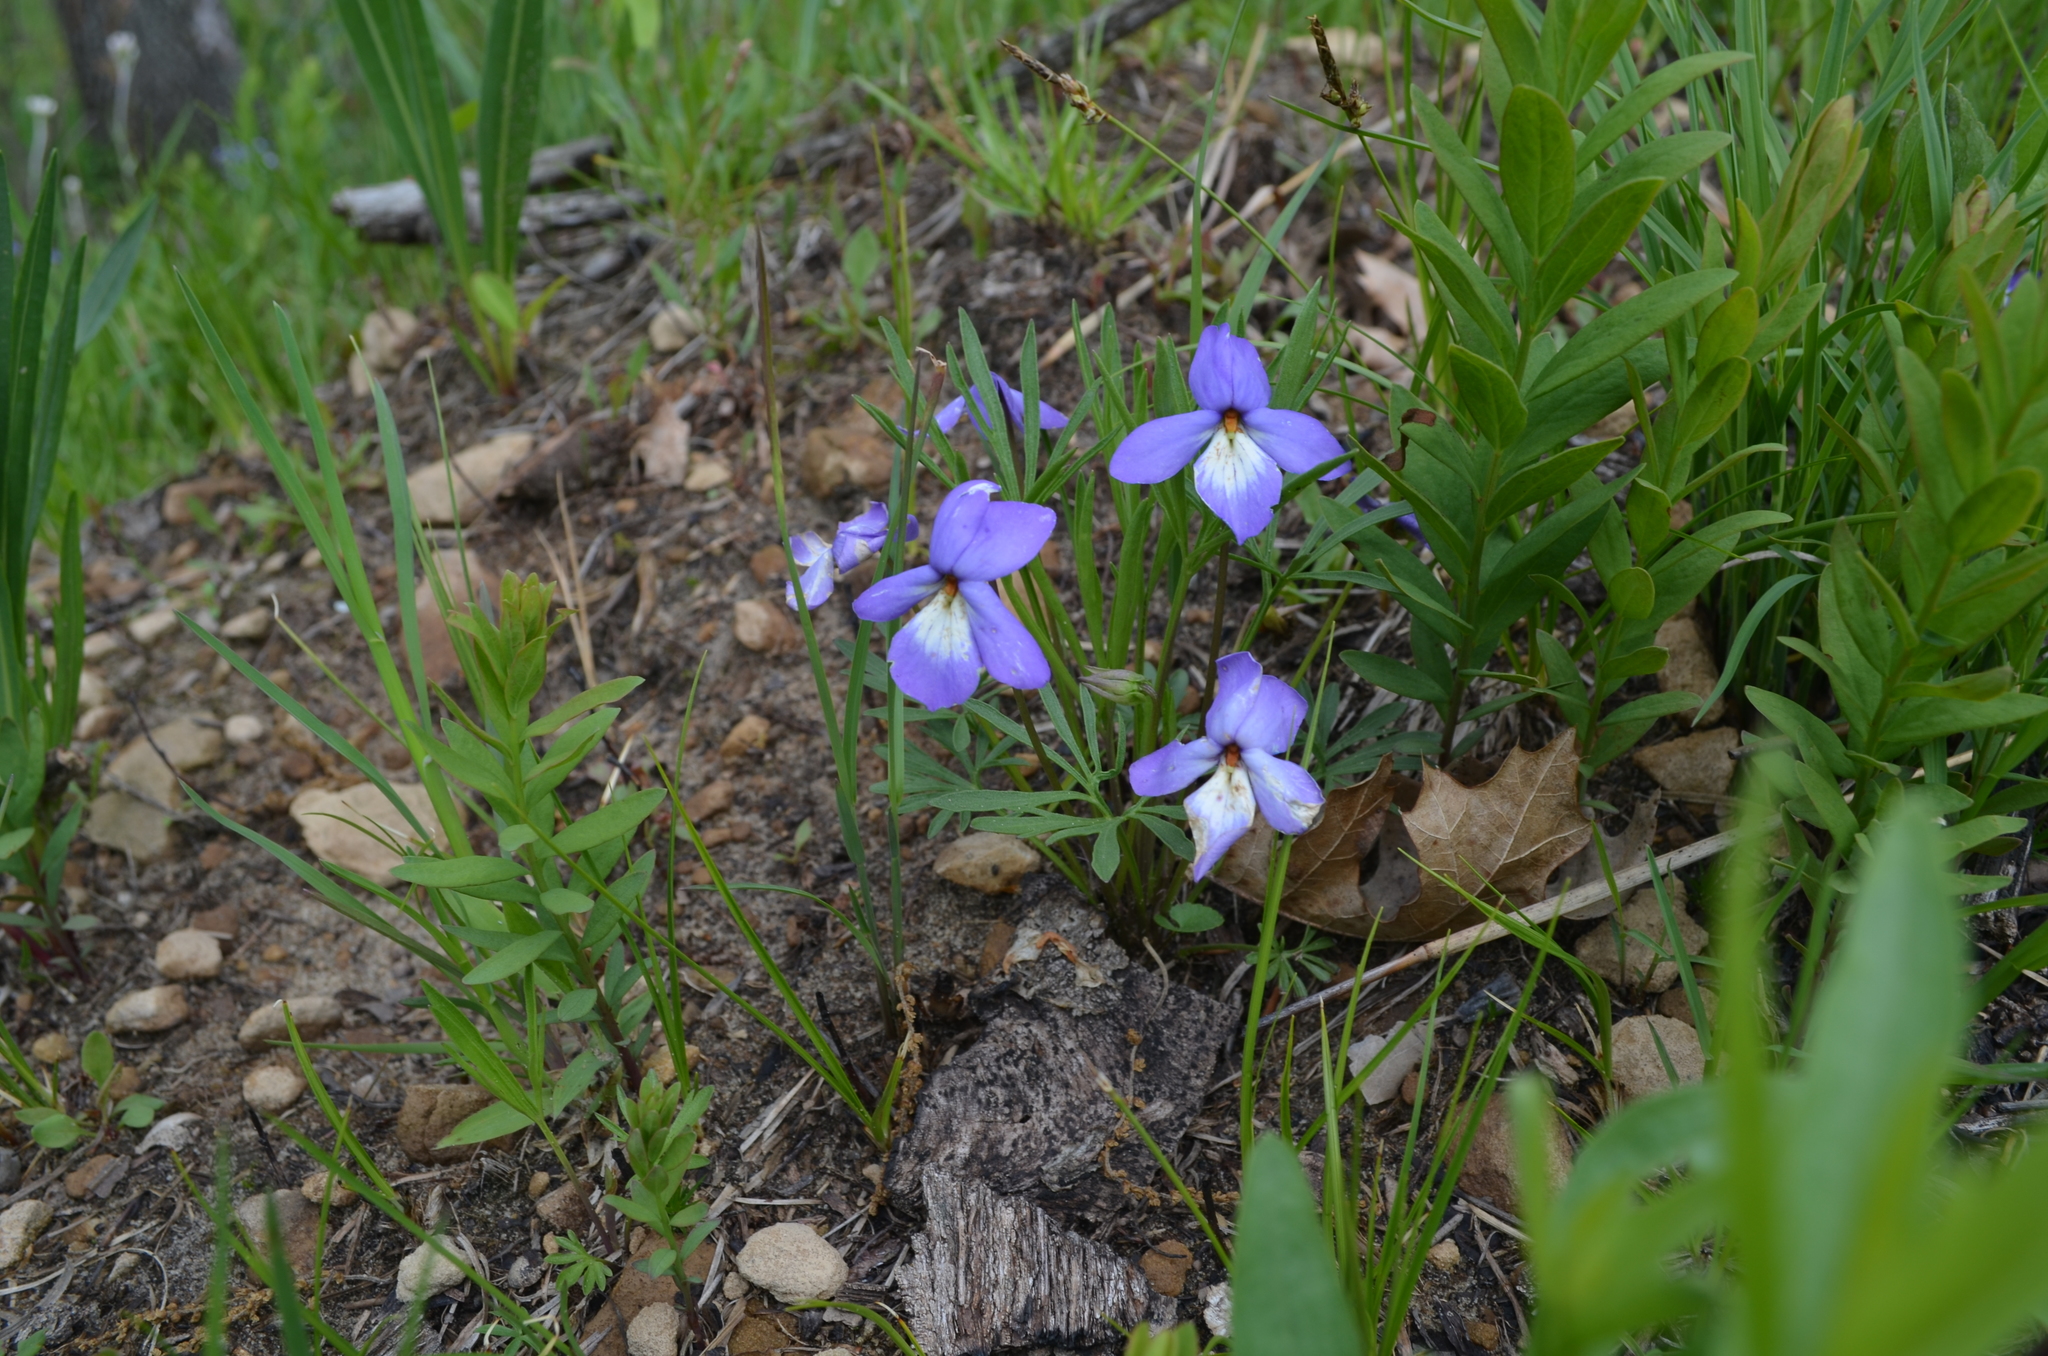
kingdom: Plantae
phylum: Tracheophyta
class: Magnoliopsida
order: Malpighiales
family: Violaceae
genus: Viola
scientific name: Viola pedata
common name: Pansy violet
